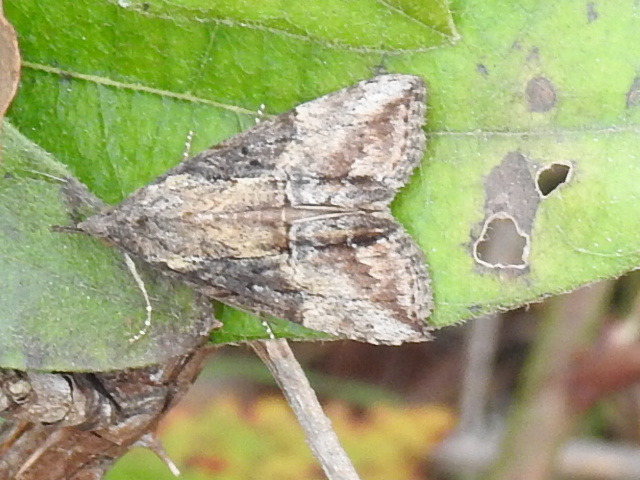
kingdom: Animalia
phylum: Arthropoda
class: Insecta
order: Lepidoptera
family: Erebidae
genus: Hypena
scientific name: Hypena scabra
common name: Green cloverworm
